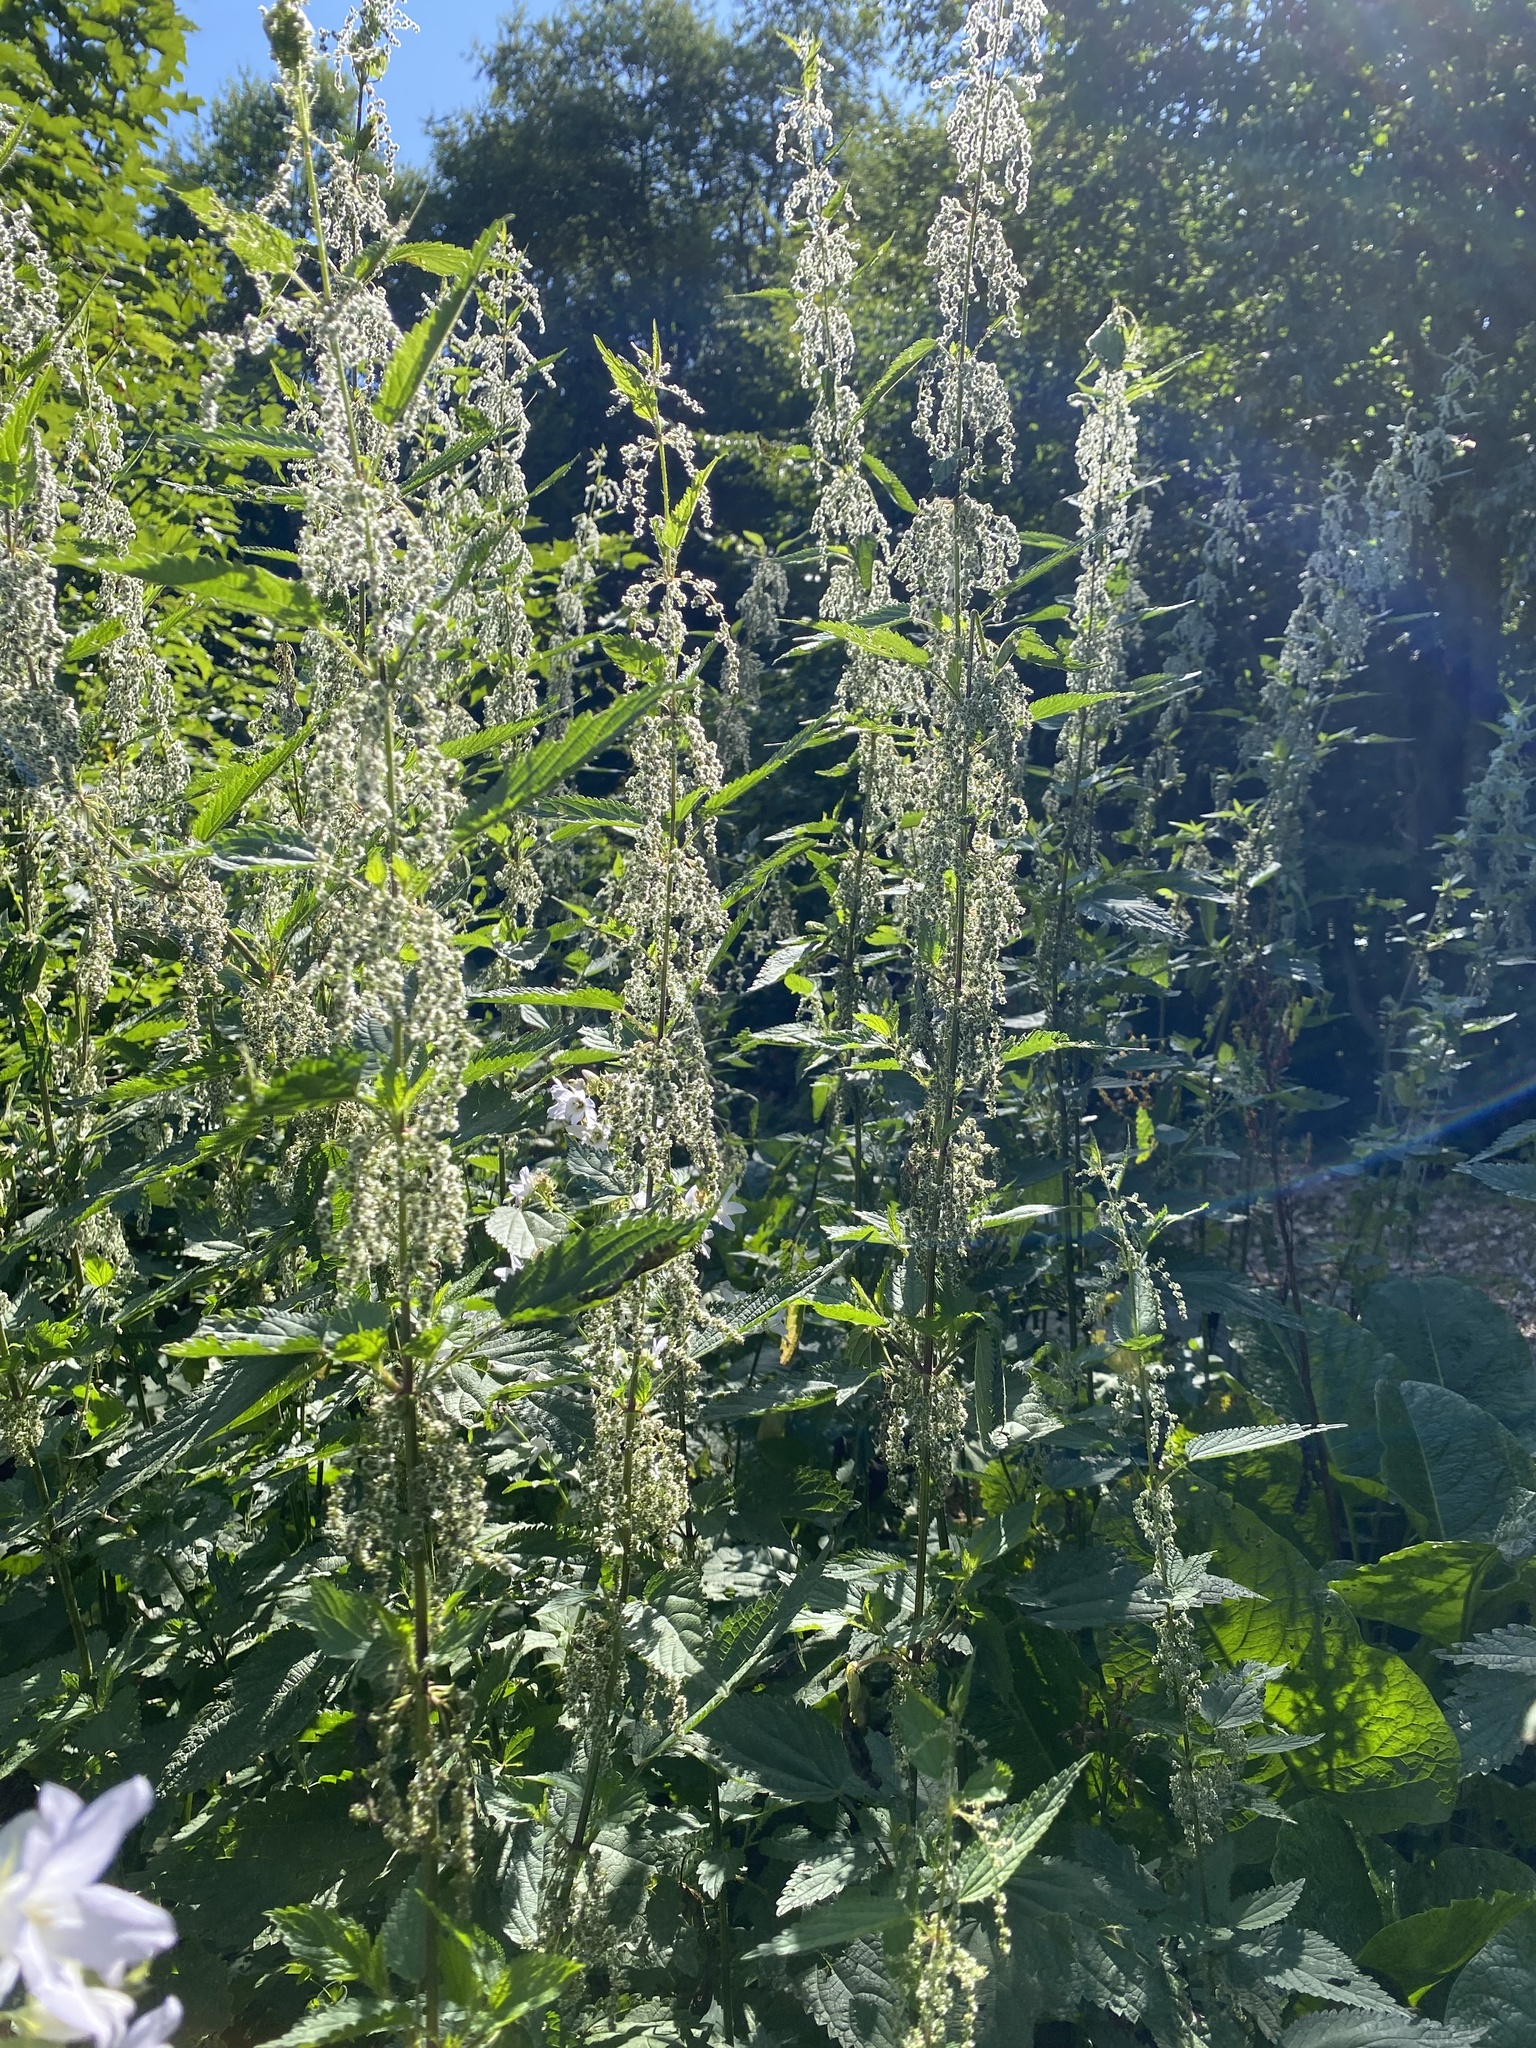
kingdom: Plantae
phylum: Tracheophyta
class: Magnoliopsida
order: Rosales
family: Urticaceae
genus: Urtica
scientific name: Urtica dioica
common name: Common nettle
